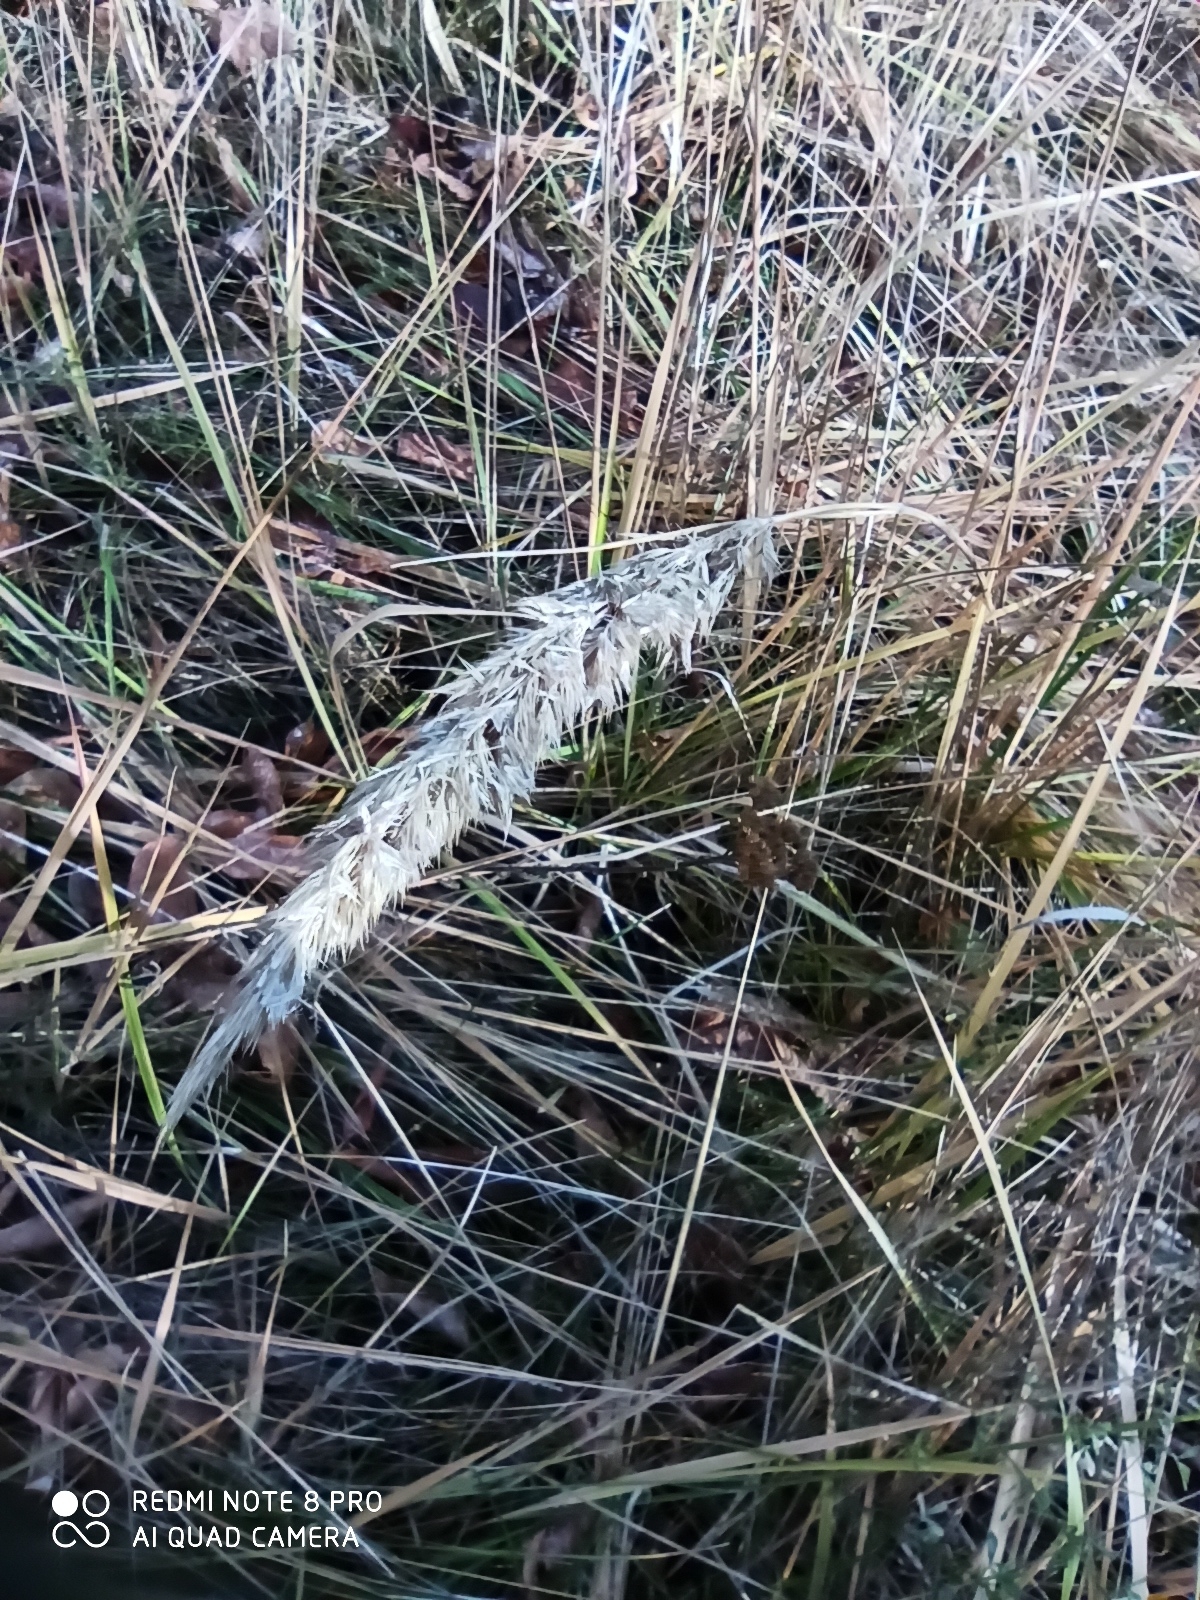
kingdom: Plantae
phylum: Tracheophyta
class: Liliopsida
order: Poales
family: Poaceae
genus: Calamagrostis
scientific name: Calamagrostis epigejos
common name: Wood small-reed
